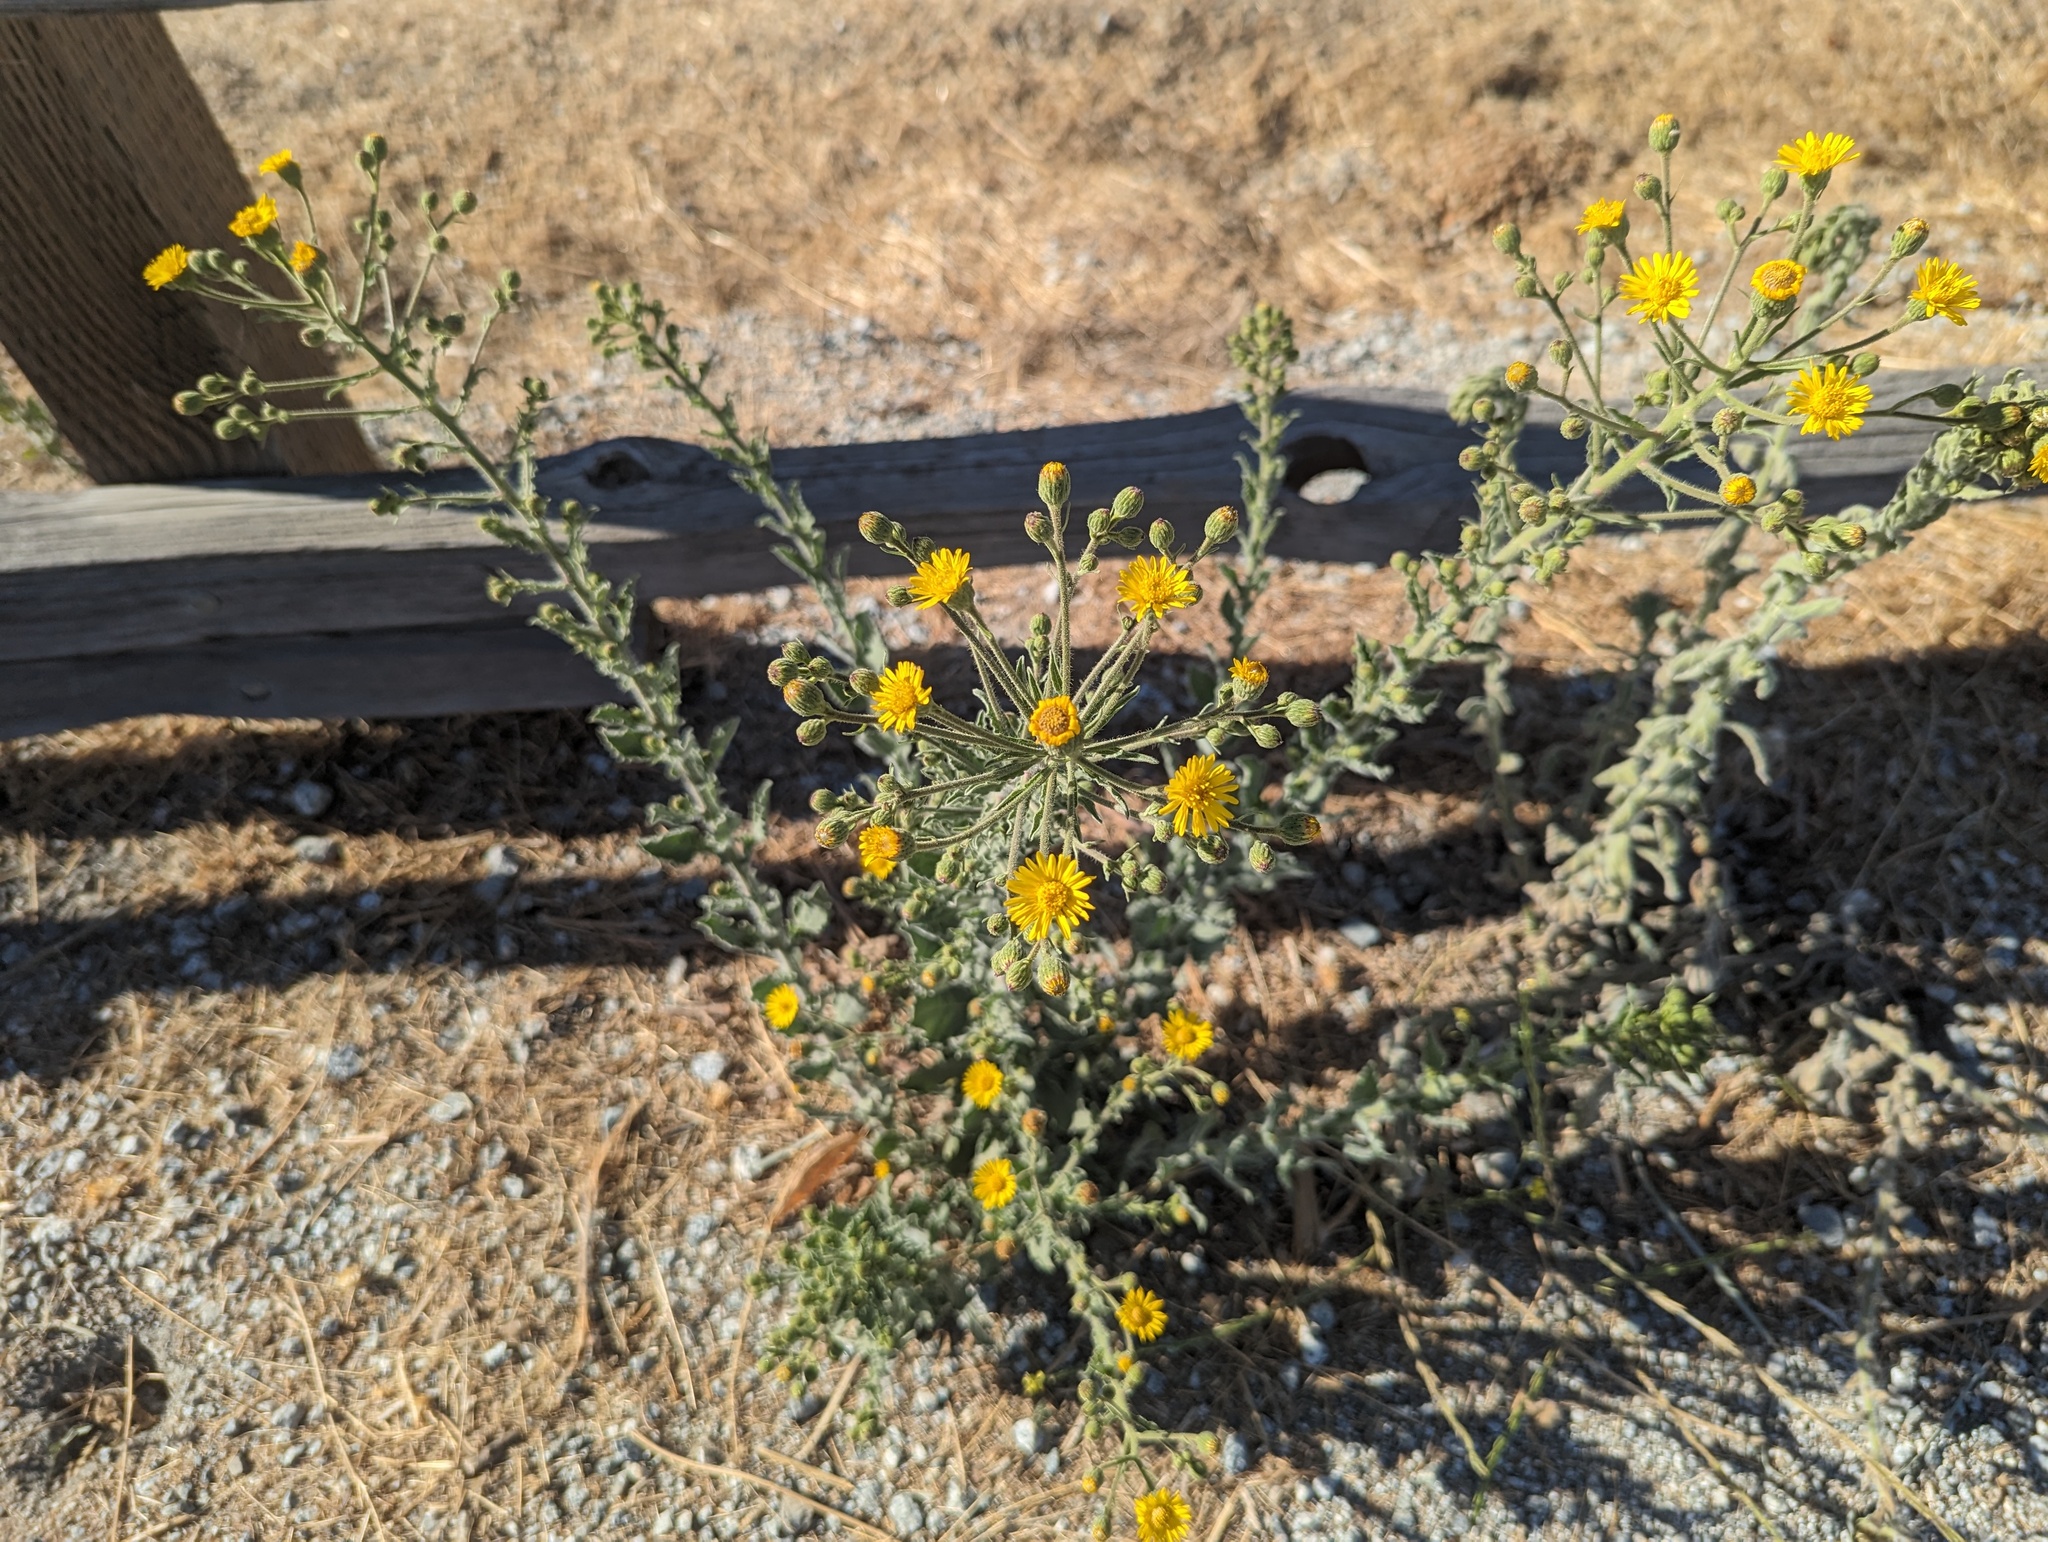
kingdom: Plantae
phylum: Tracheophyta
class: Magnoliopsida
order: Asterales
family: Asteraceae
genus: Heterotheca
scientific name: Heterotheca grandiflora
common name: Telegraphweed
